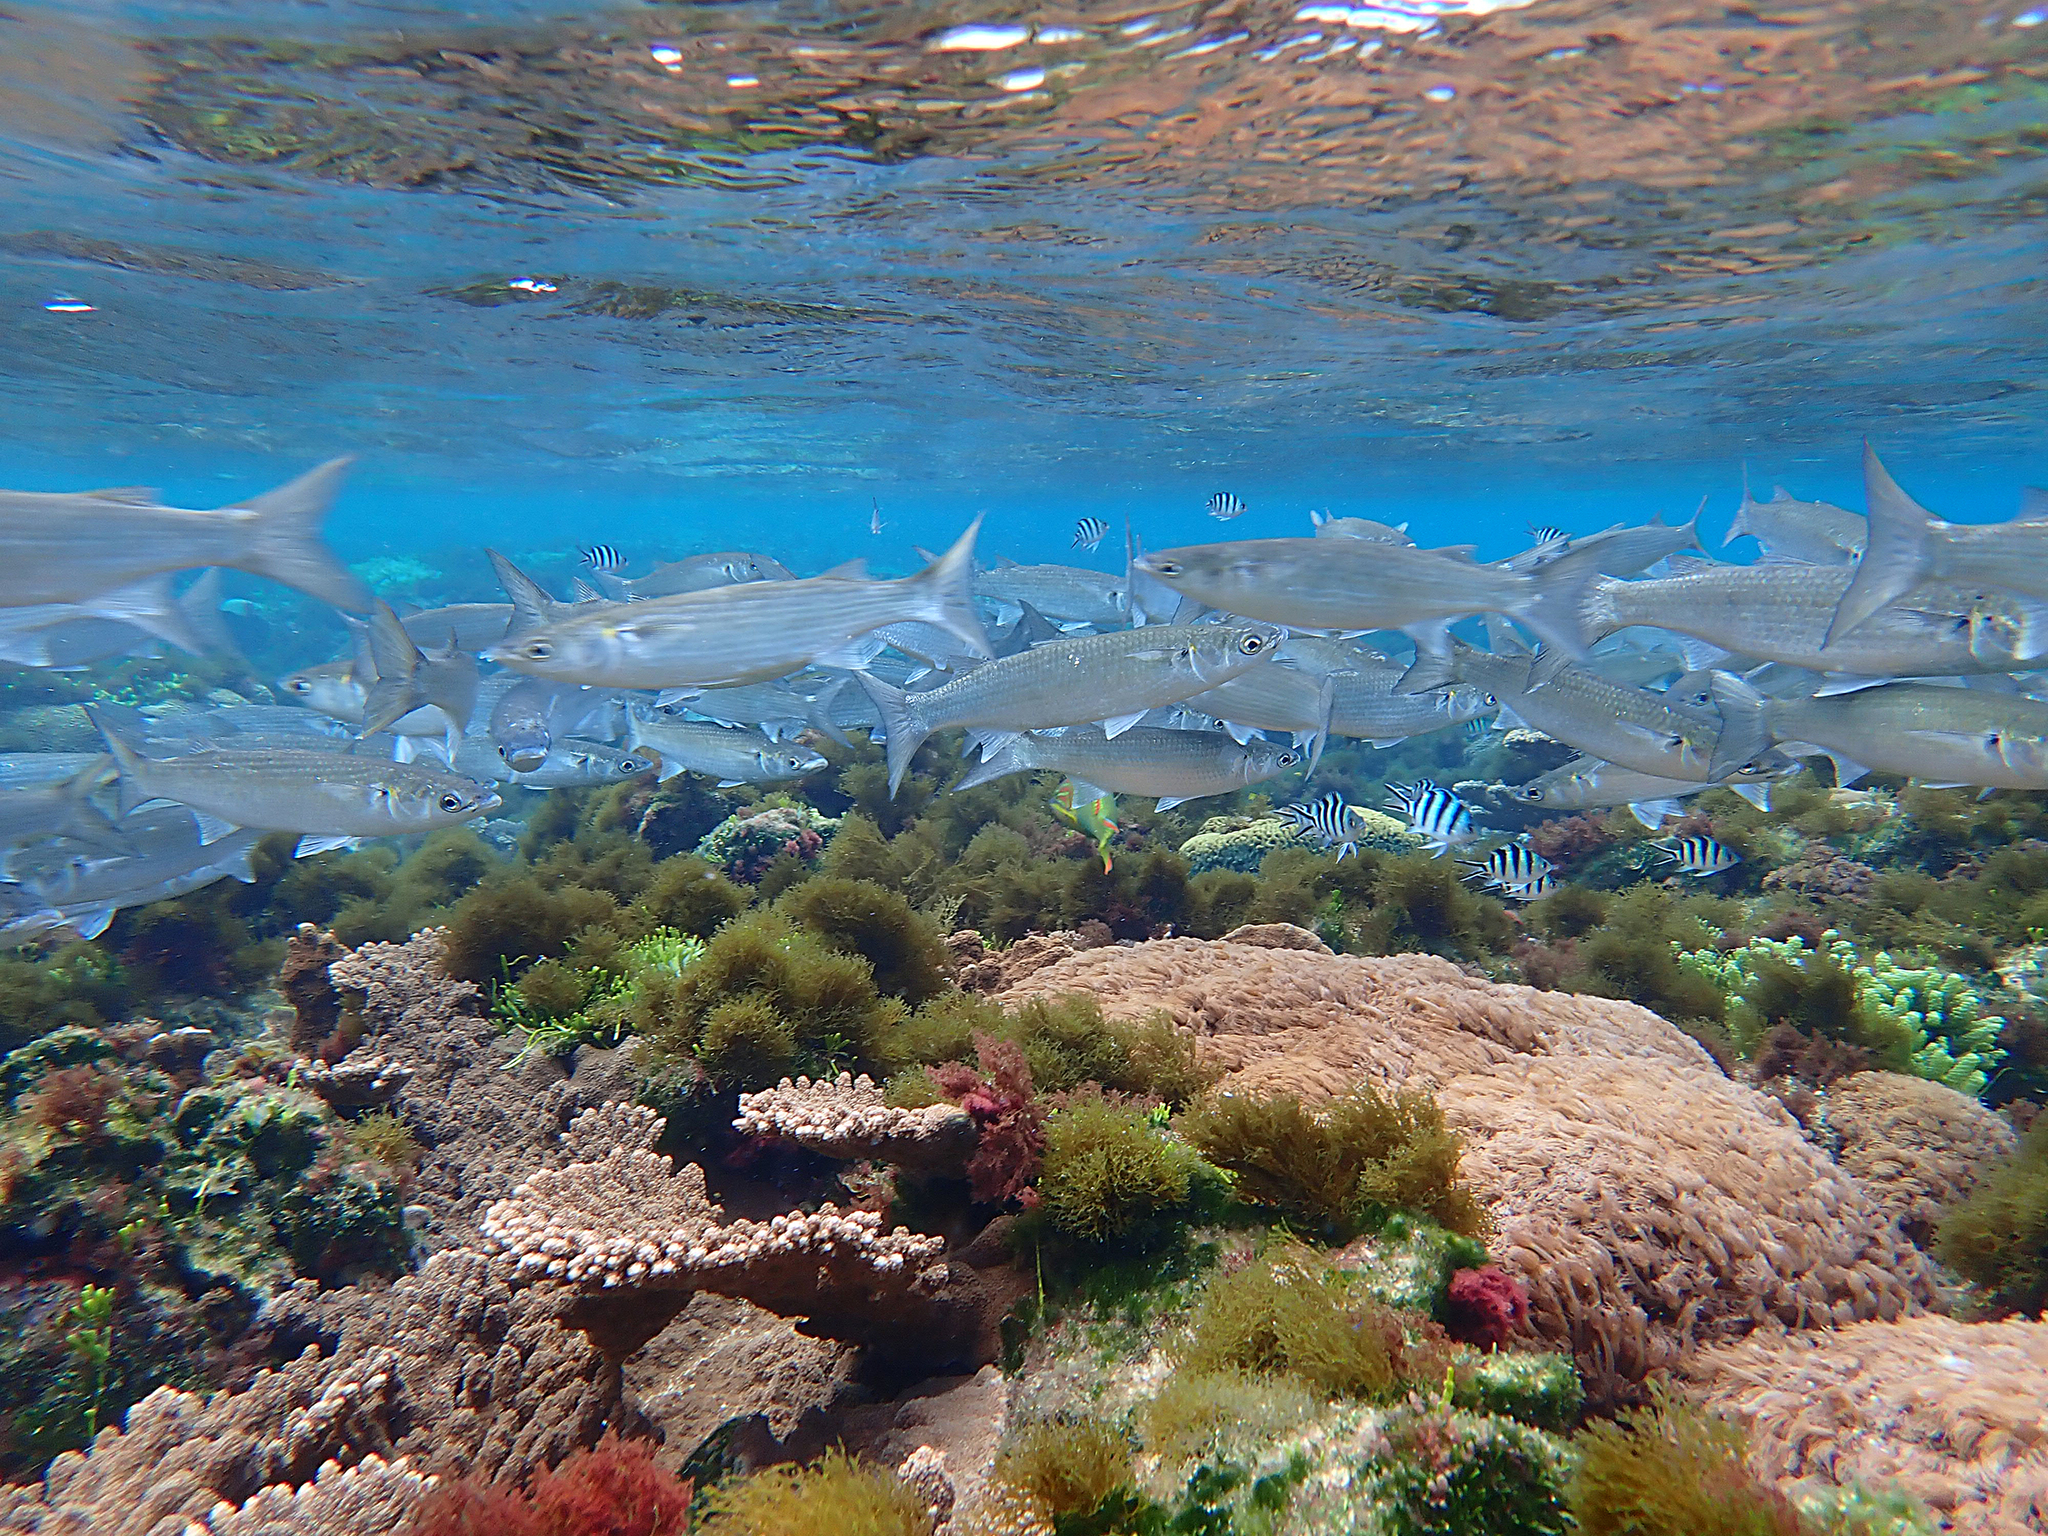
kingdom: Animalia
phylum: Chordata
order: Mugiliformes
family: Mugilidae
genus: Myxus
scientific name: Myxus elongatus
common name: Sand grey mullet
